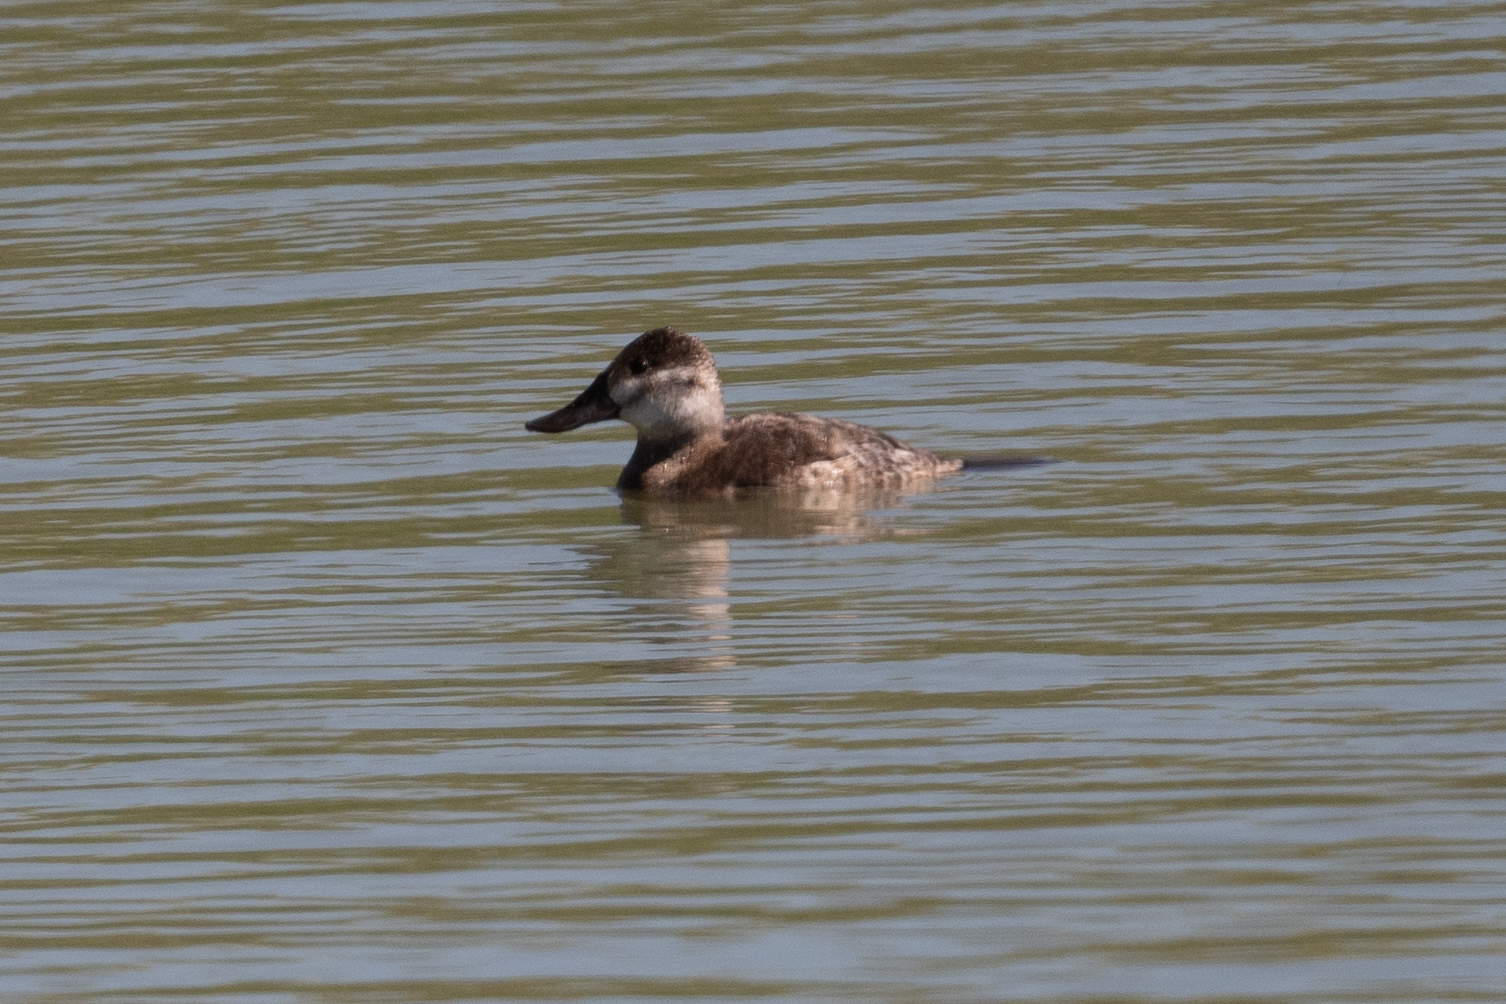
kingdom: Animalia
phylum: Chordata
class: Aves
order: Anseriformes
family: Anatidae
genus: Oxyura
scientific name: Oxyura jamaicensis
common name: Ruddy duck
